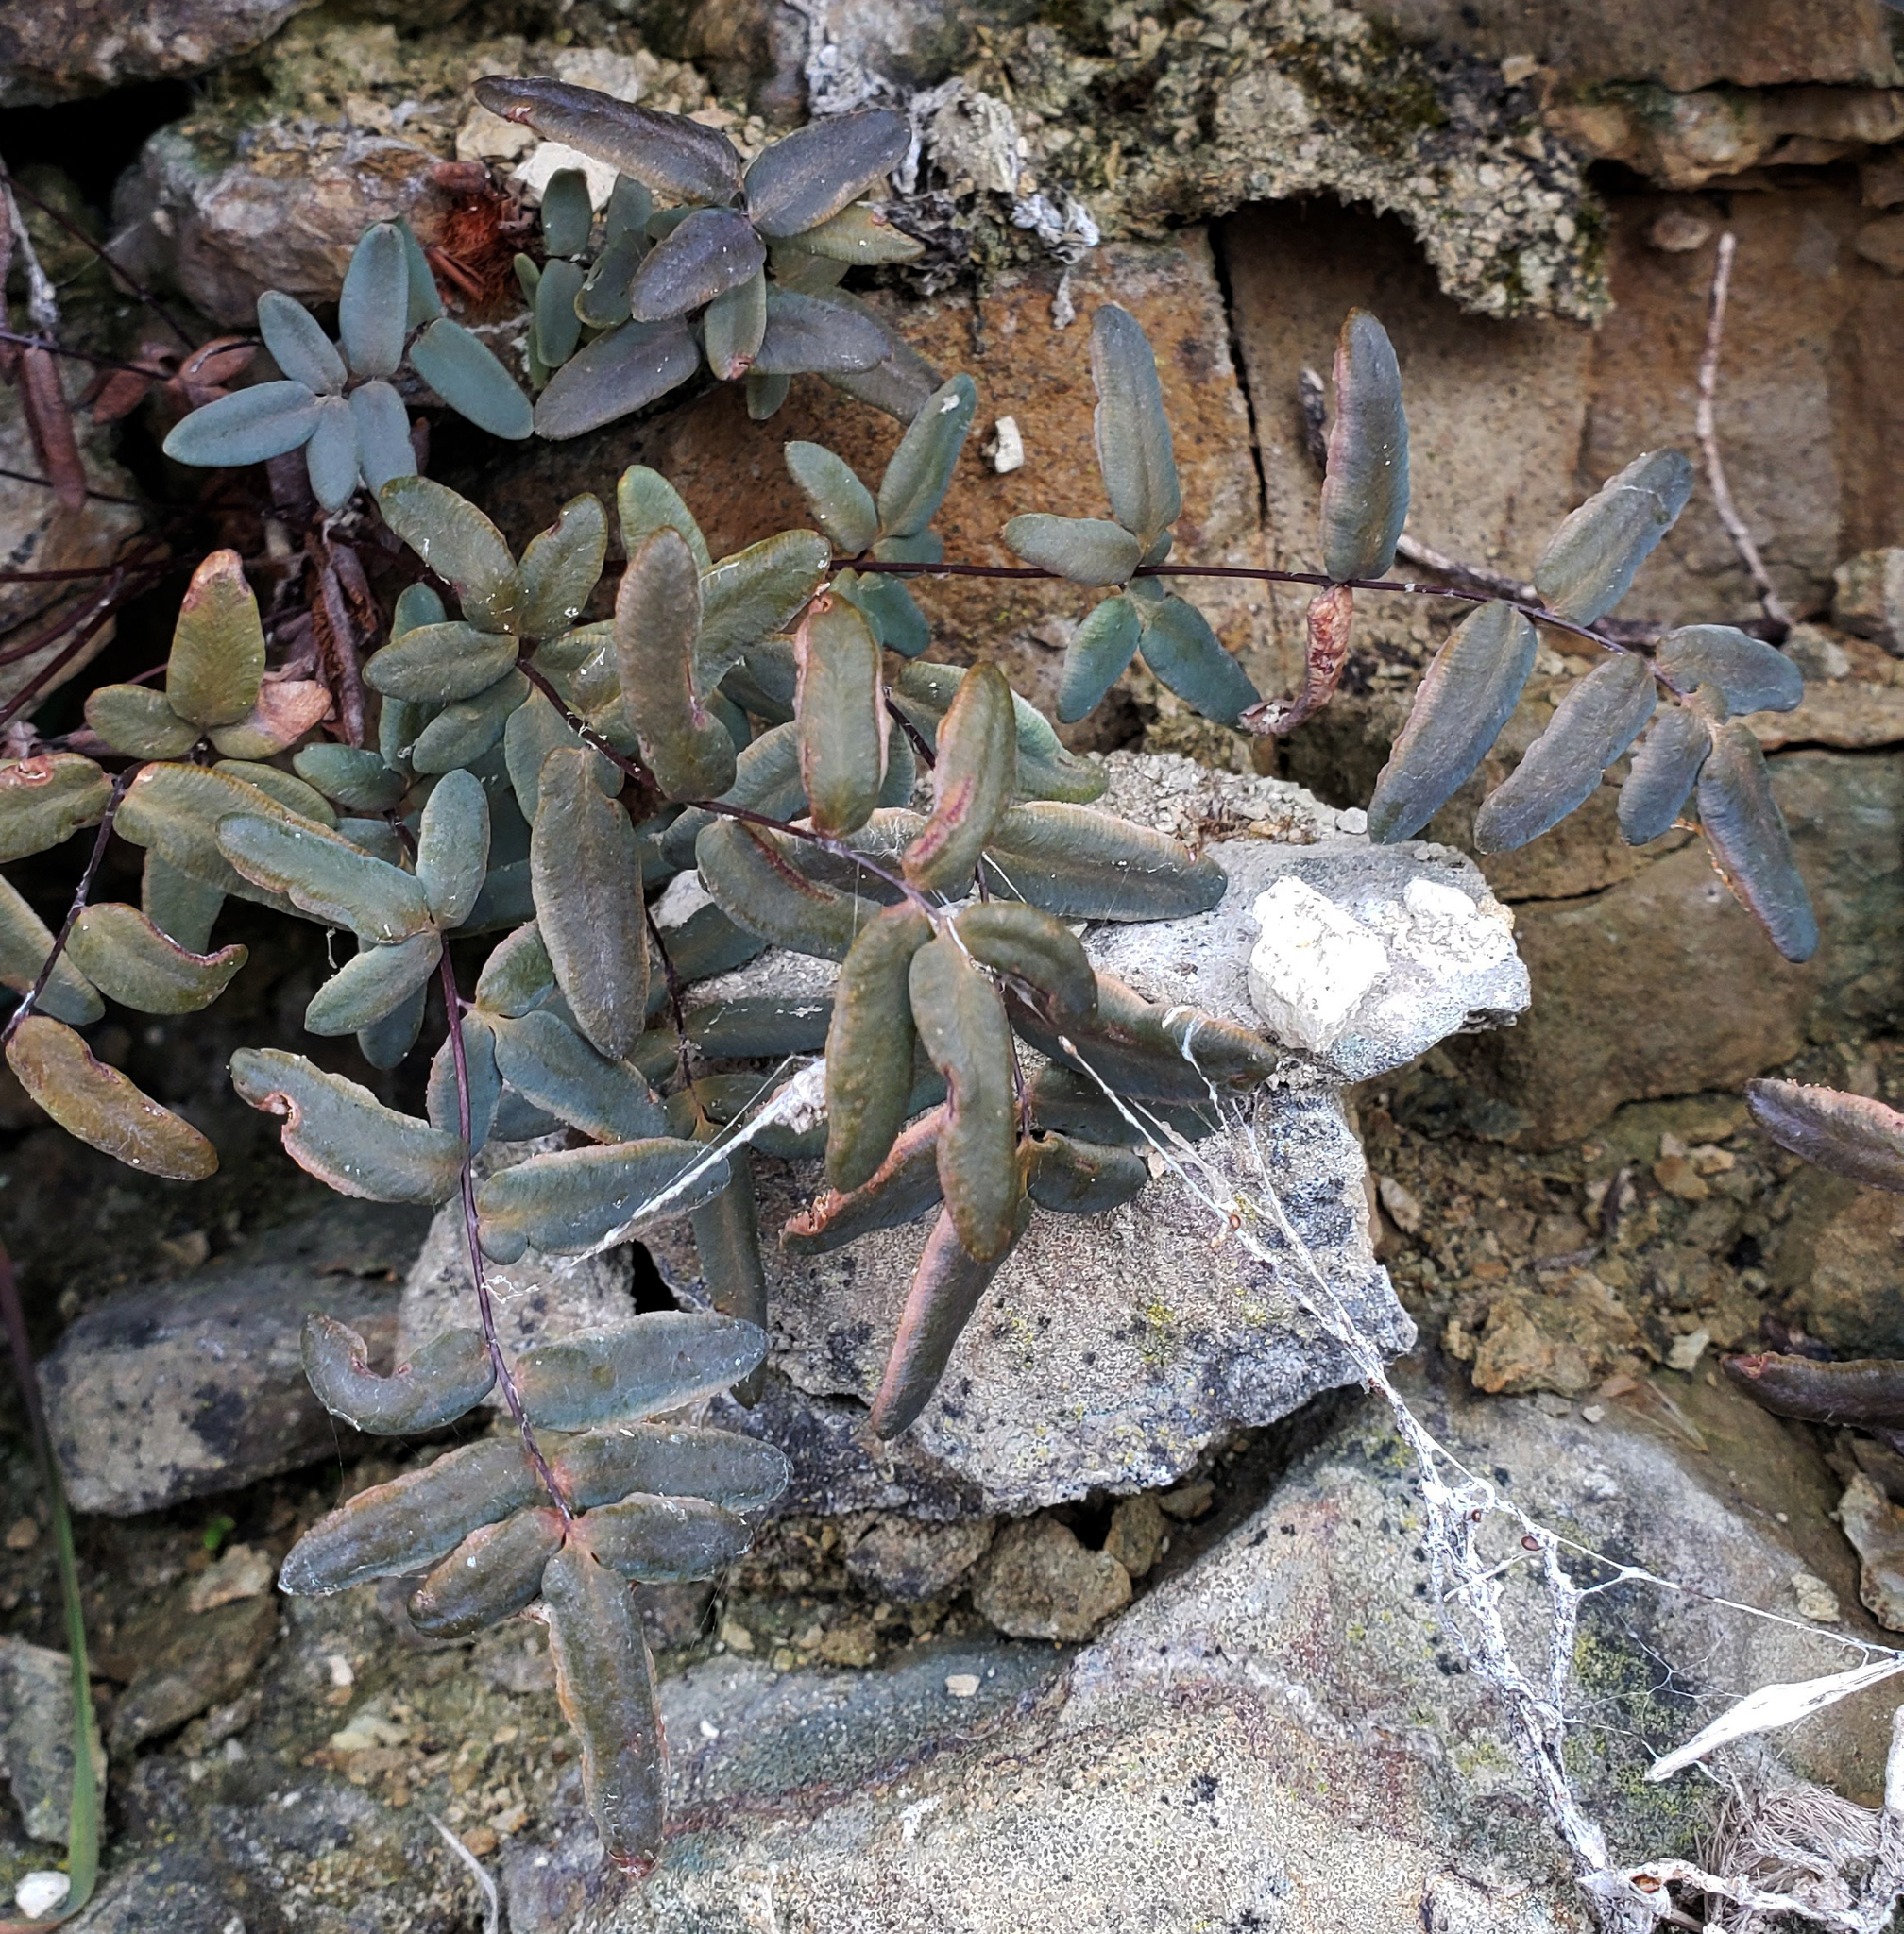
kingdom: Plantae
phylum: Tracheophyta
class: Polypodiopsida
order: Polypodiales
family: Pteridaceae
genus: Pellaea
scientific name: Pellaea glabella
